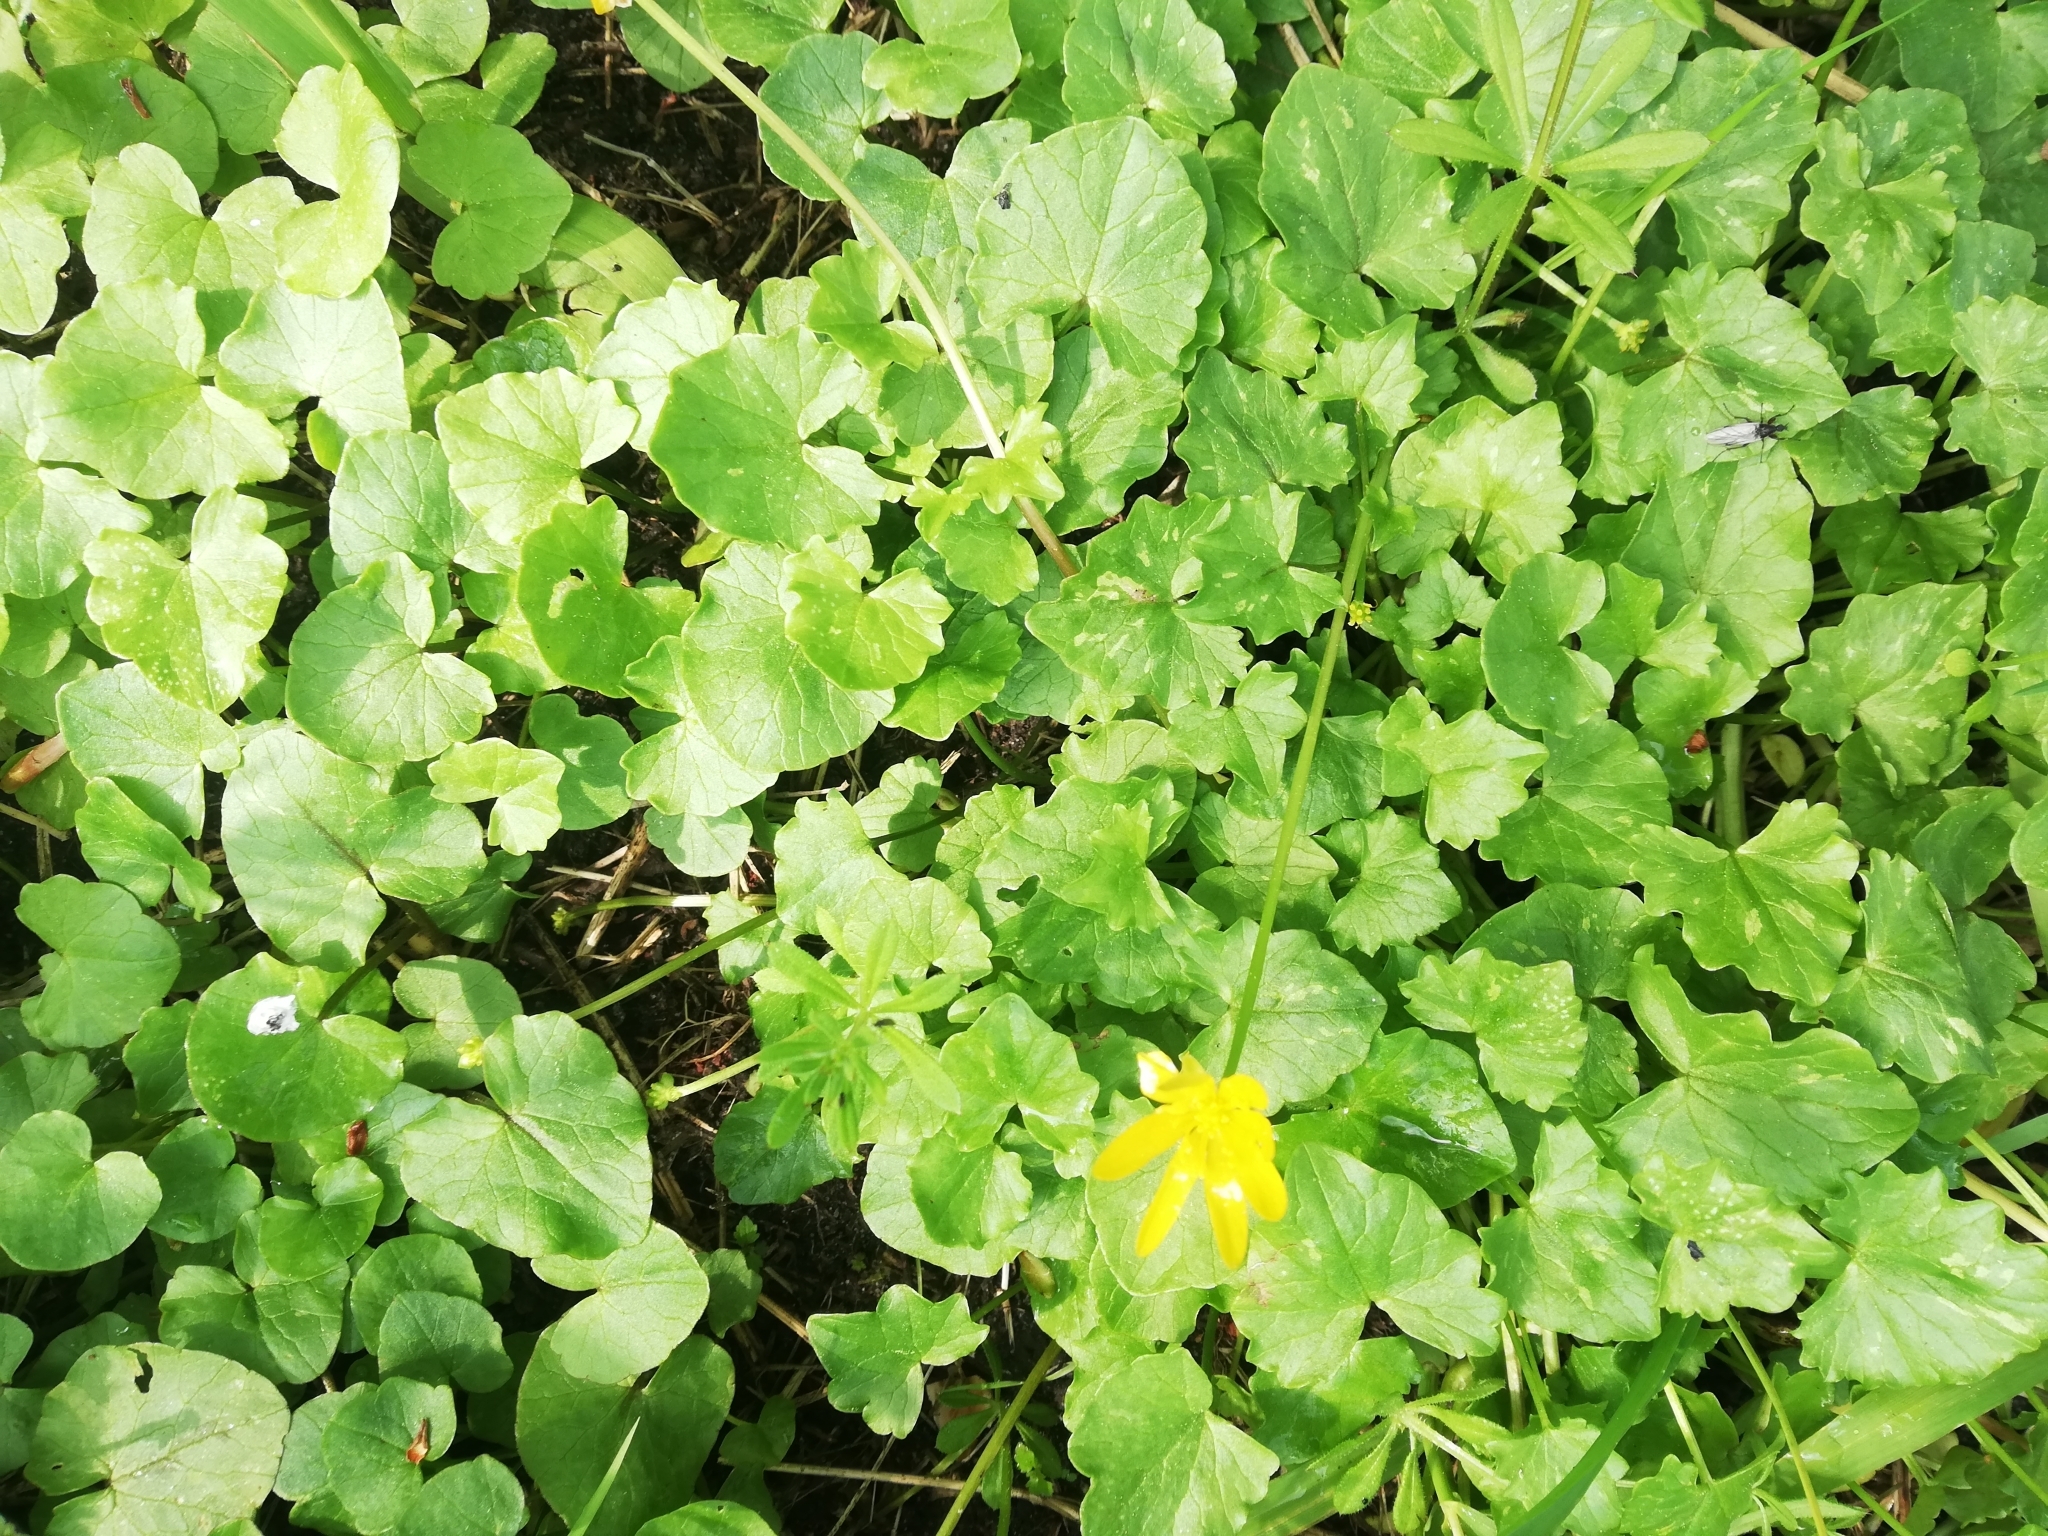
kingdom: Plantae
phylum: Tracheophyta
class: Magnoliopsida
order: Ranunculales
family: Ranunculaceae
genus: Ficaria
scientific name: Ficaria verna
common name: Lesser celandine
